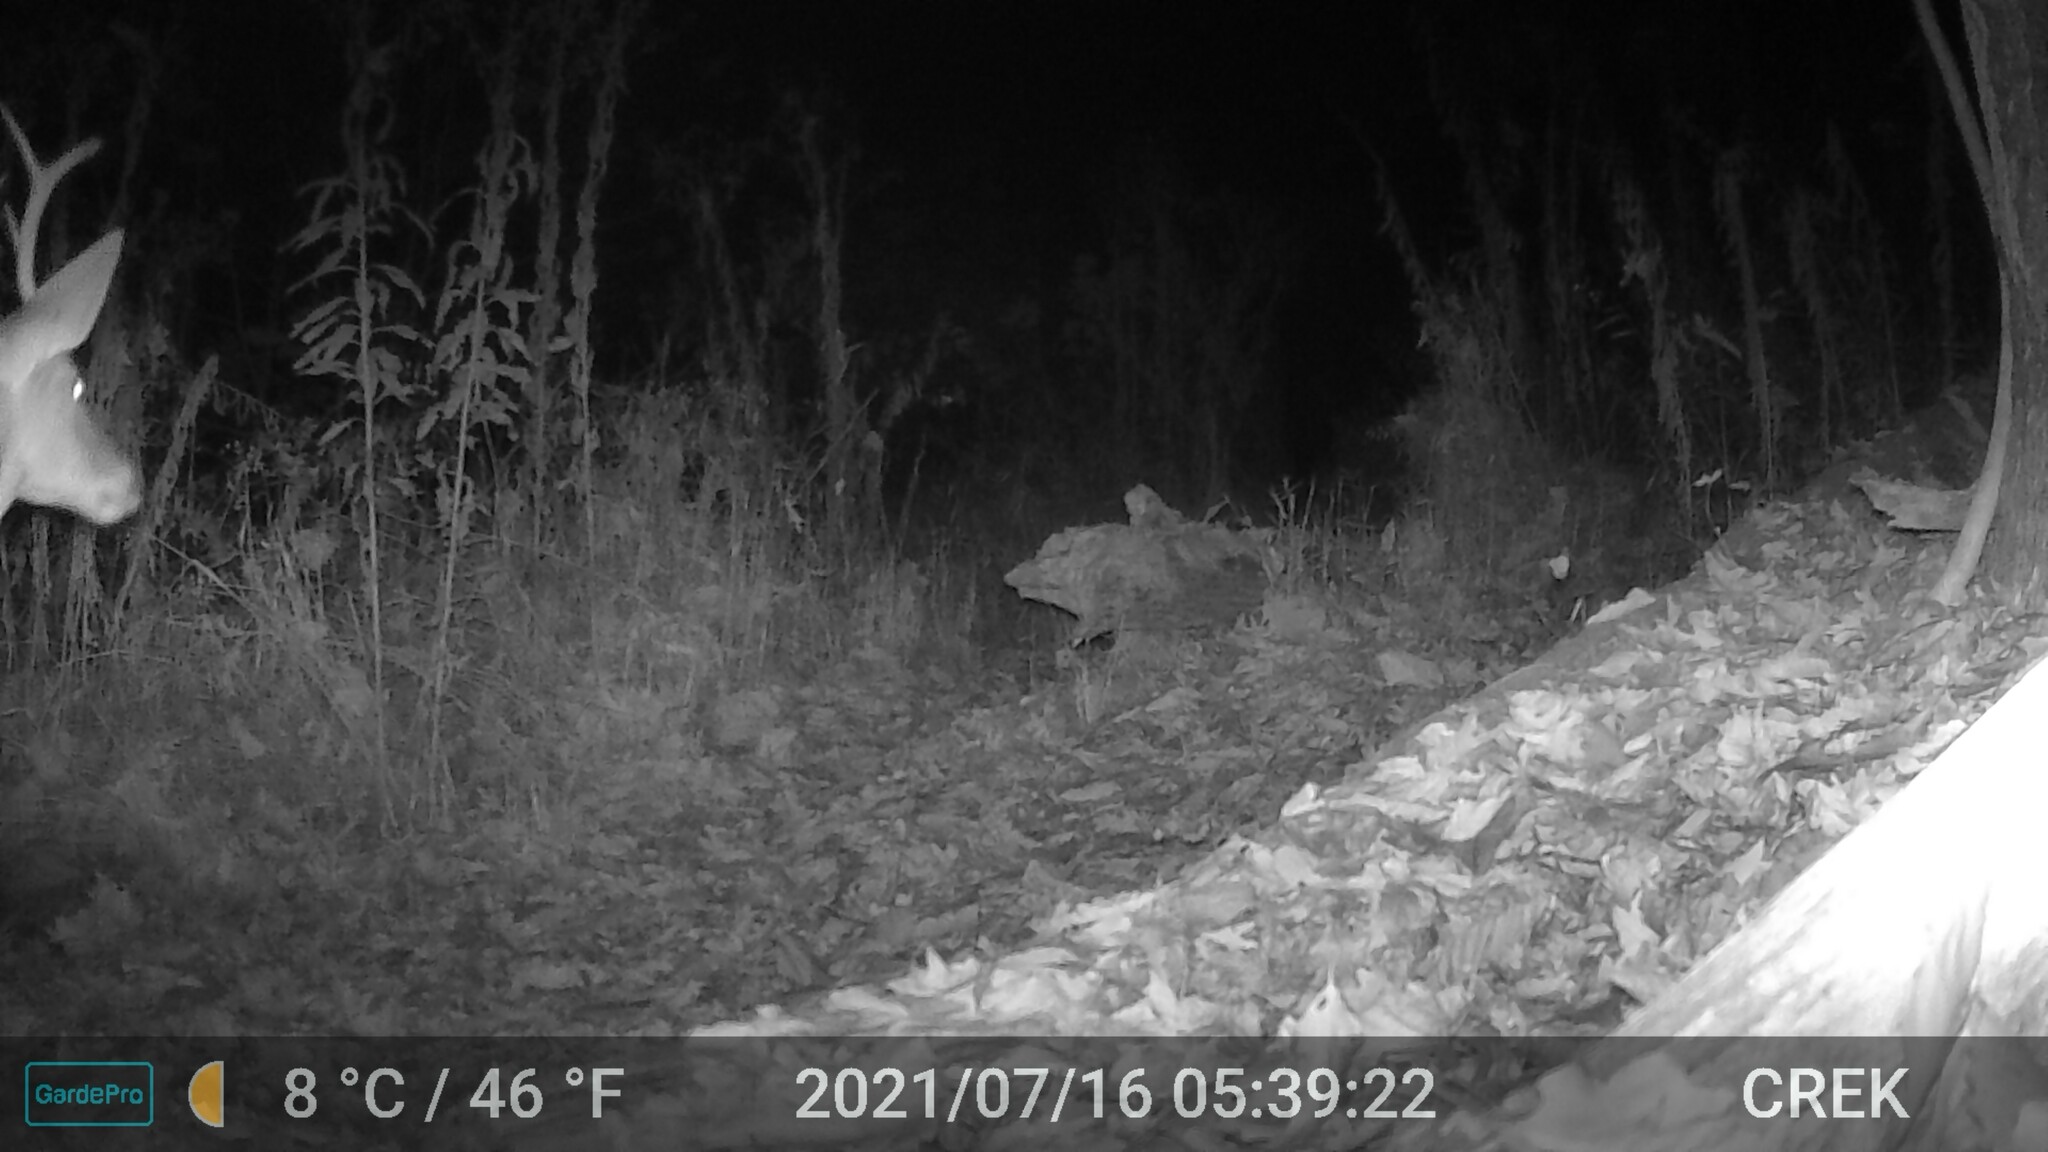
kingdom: Animalia
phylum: Chordata
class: Mammalia
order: Artiodactyla
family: Cervidae
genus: Odocoileus
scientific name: Odocoileus virginianus
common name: White-tailed deer
